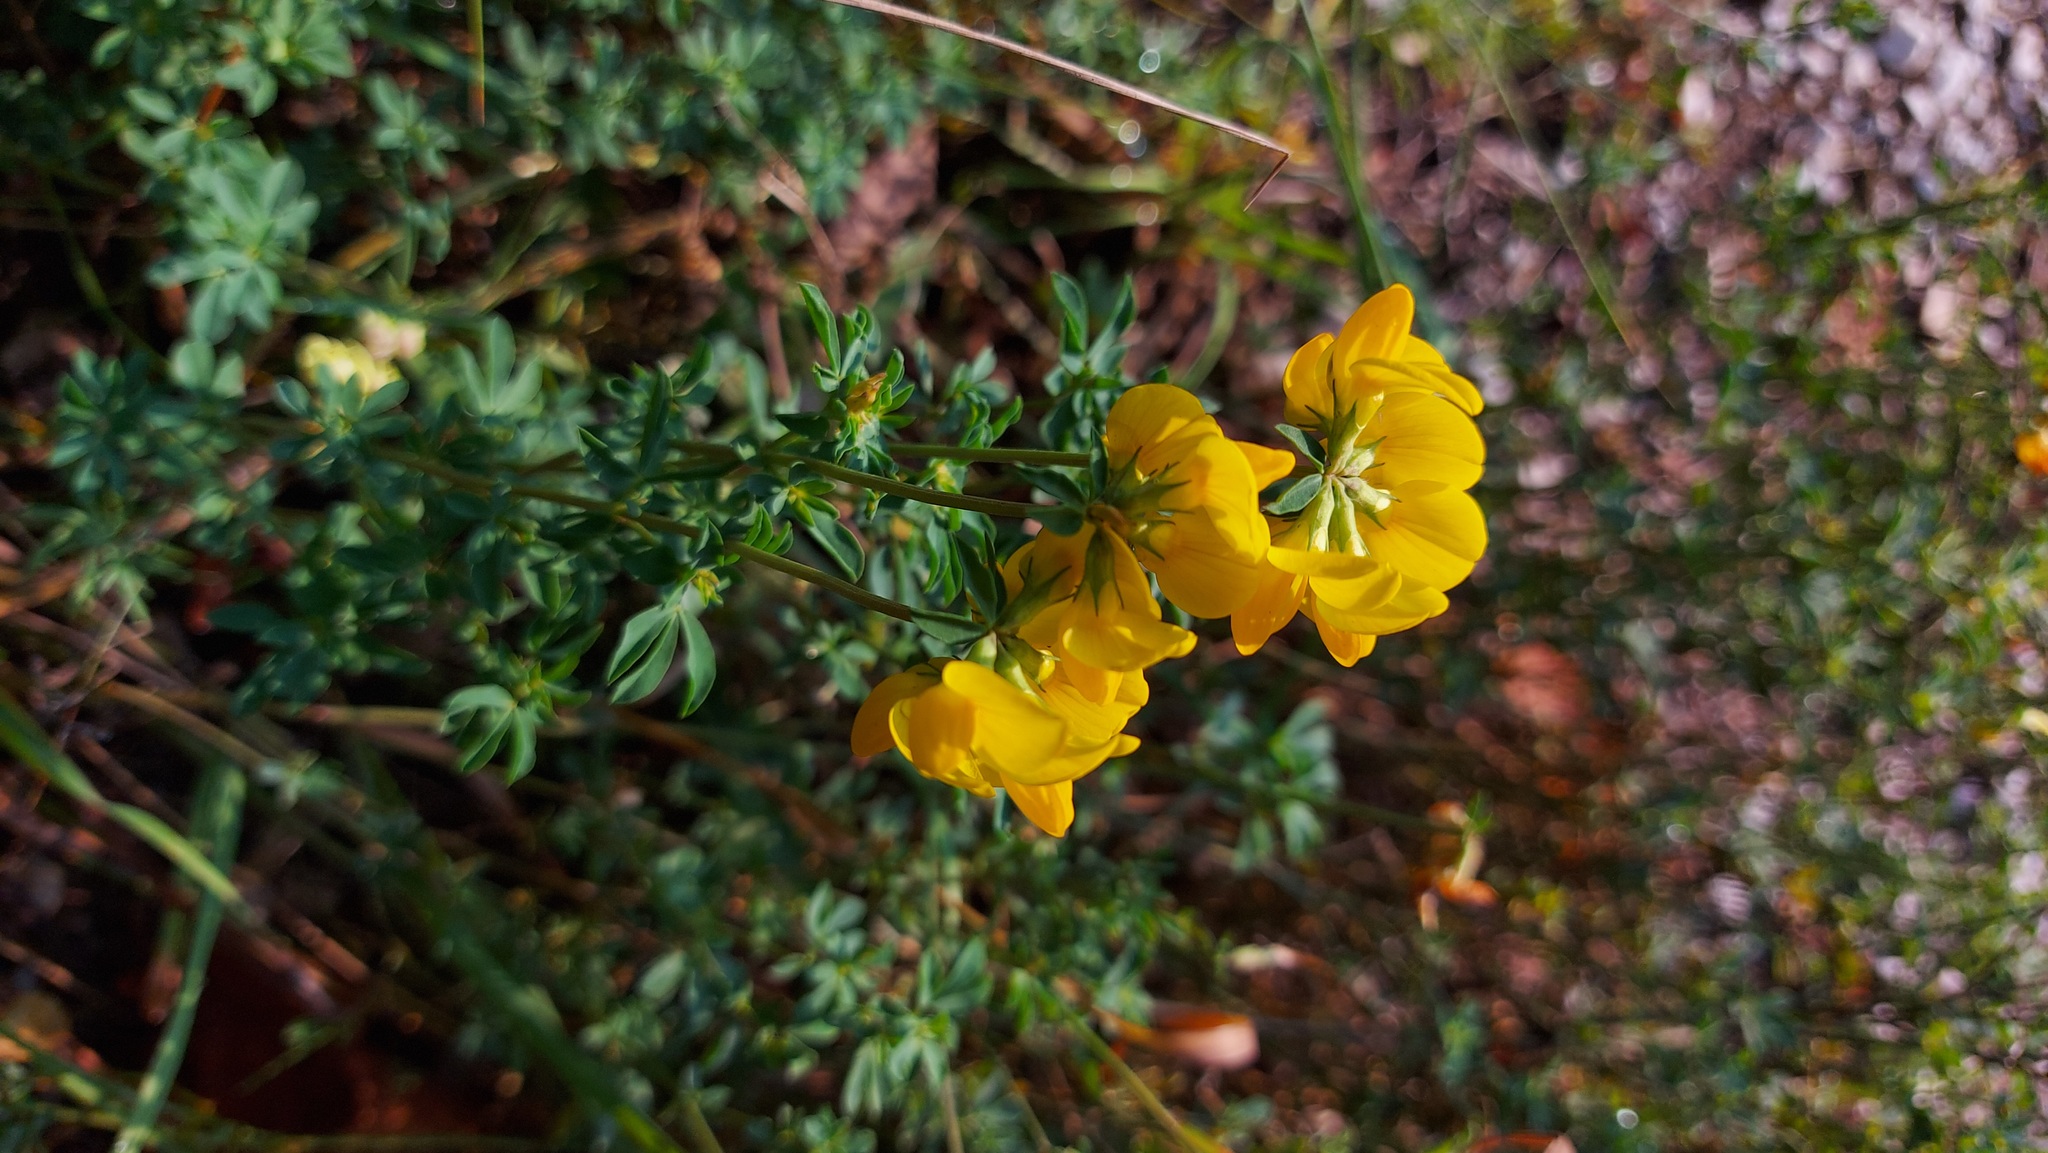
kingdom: Plantae
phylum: Tracheophyta
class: Magnoliopsida
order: Fabales
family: Fabaceae
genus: Hippocrepis
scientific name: Hippocrepis comosa
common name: Horseshoe vetch
